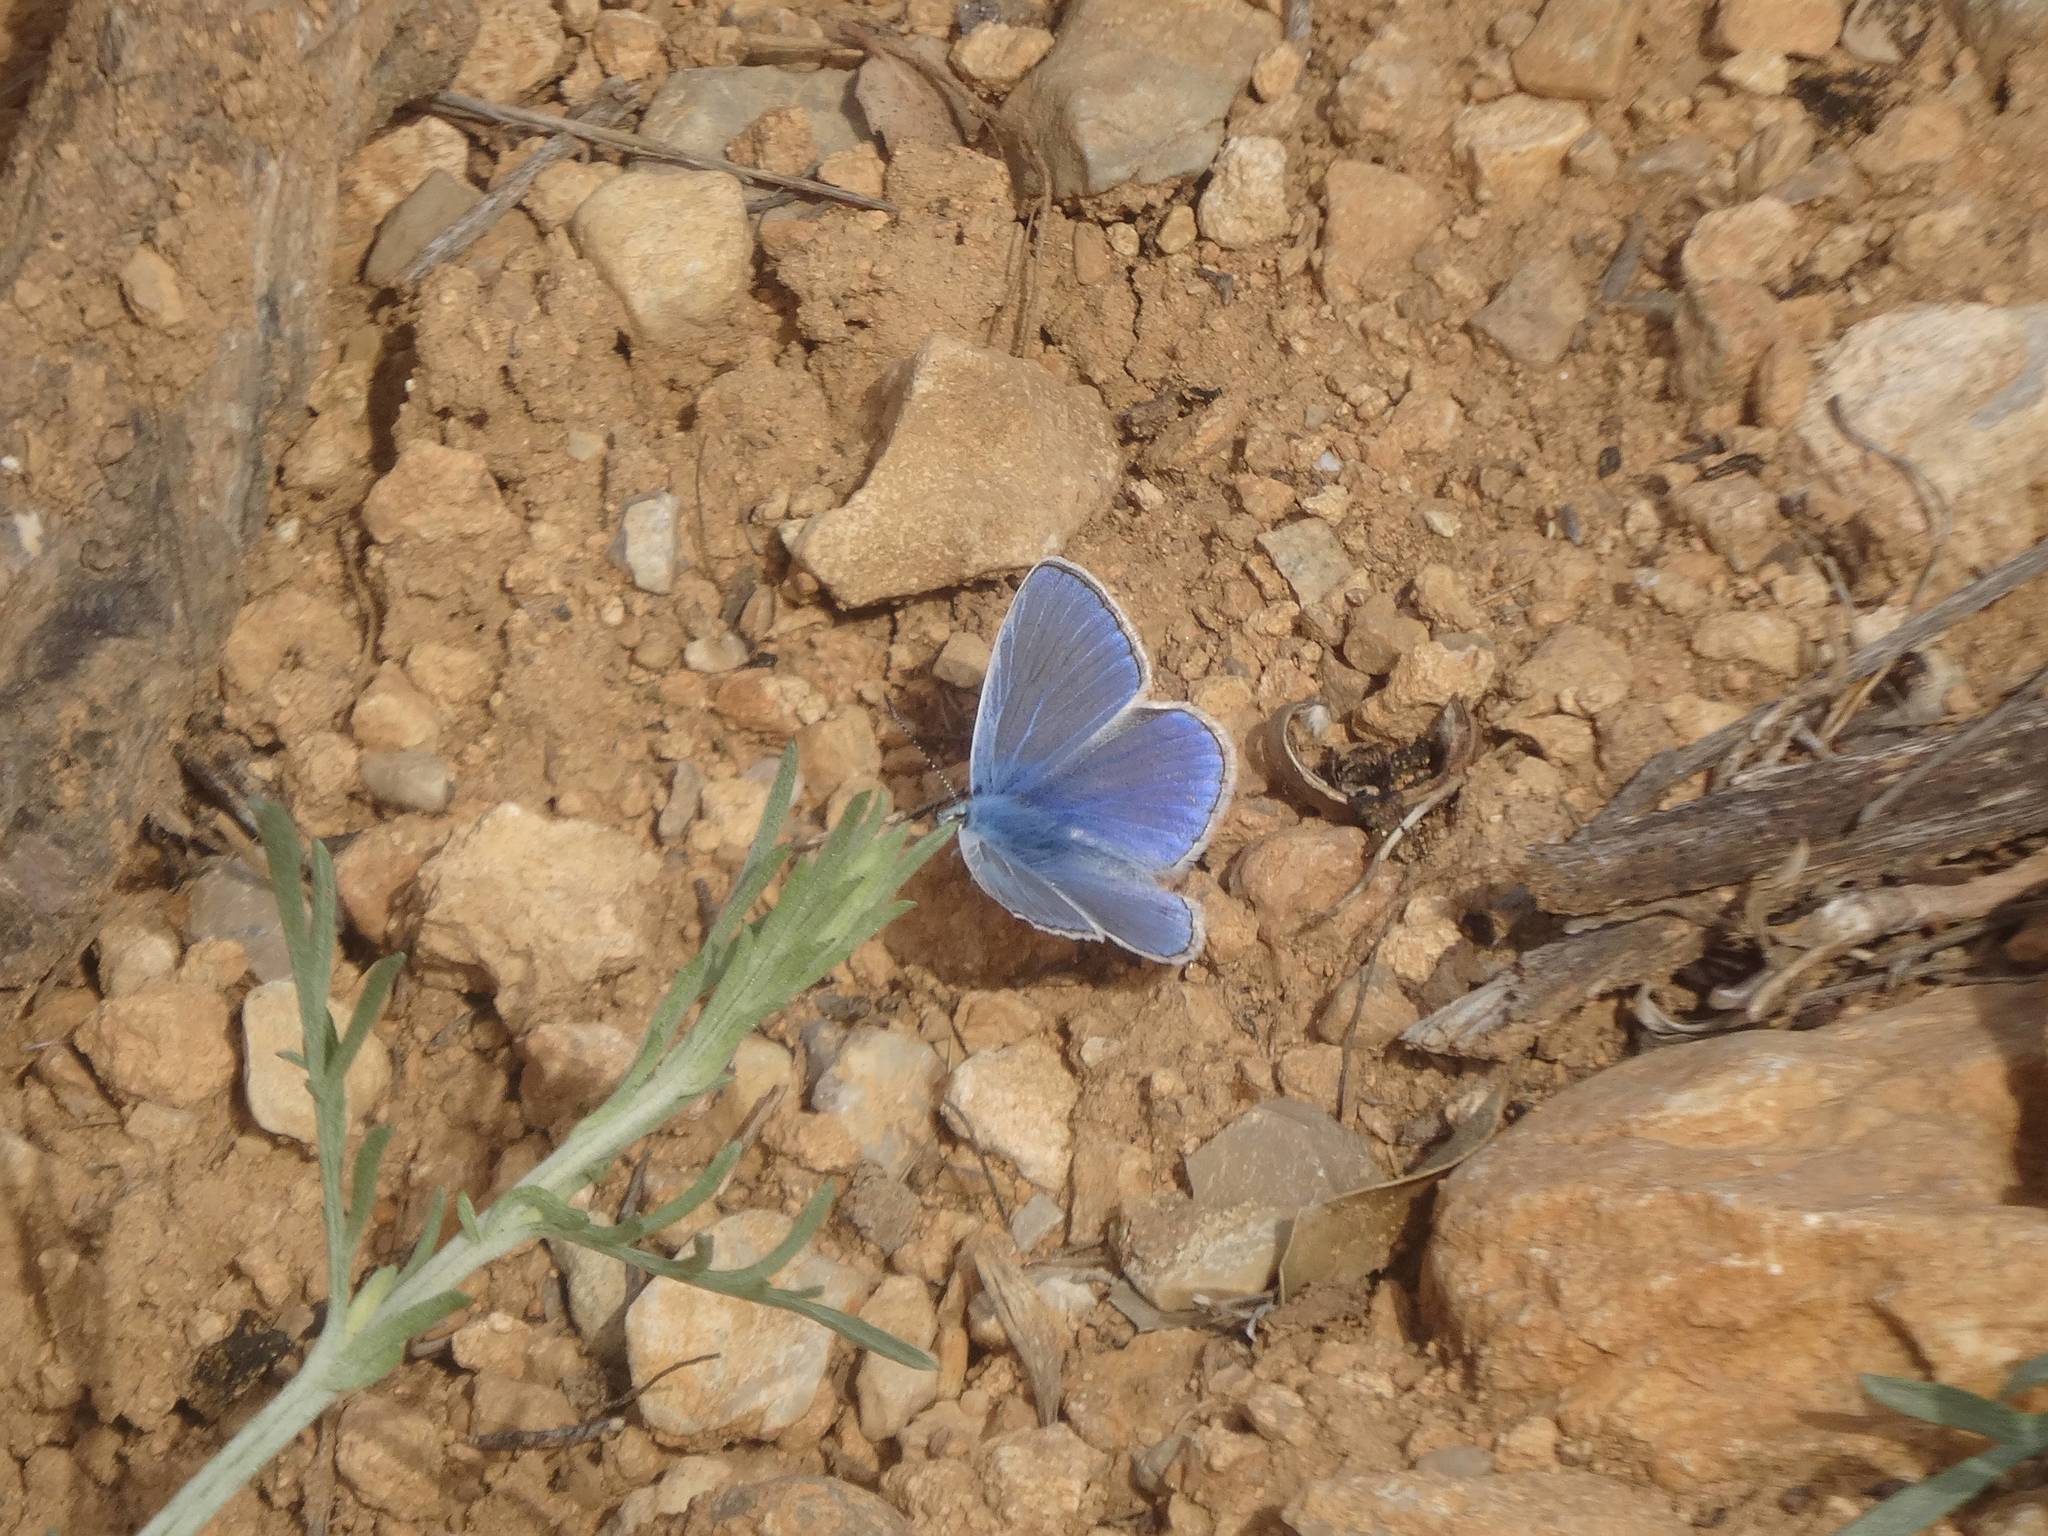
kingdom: Animalia
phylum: Arthropoda
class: Insecta
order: Lepidoptera
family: Lycaenidae
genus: Polyommatus
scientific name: Polyommatus
